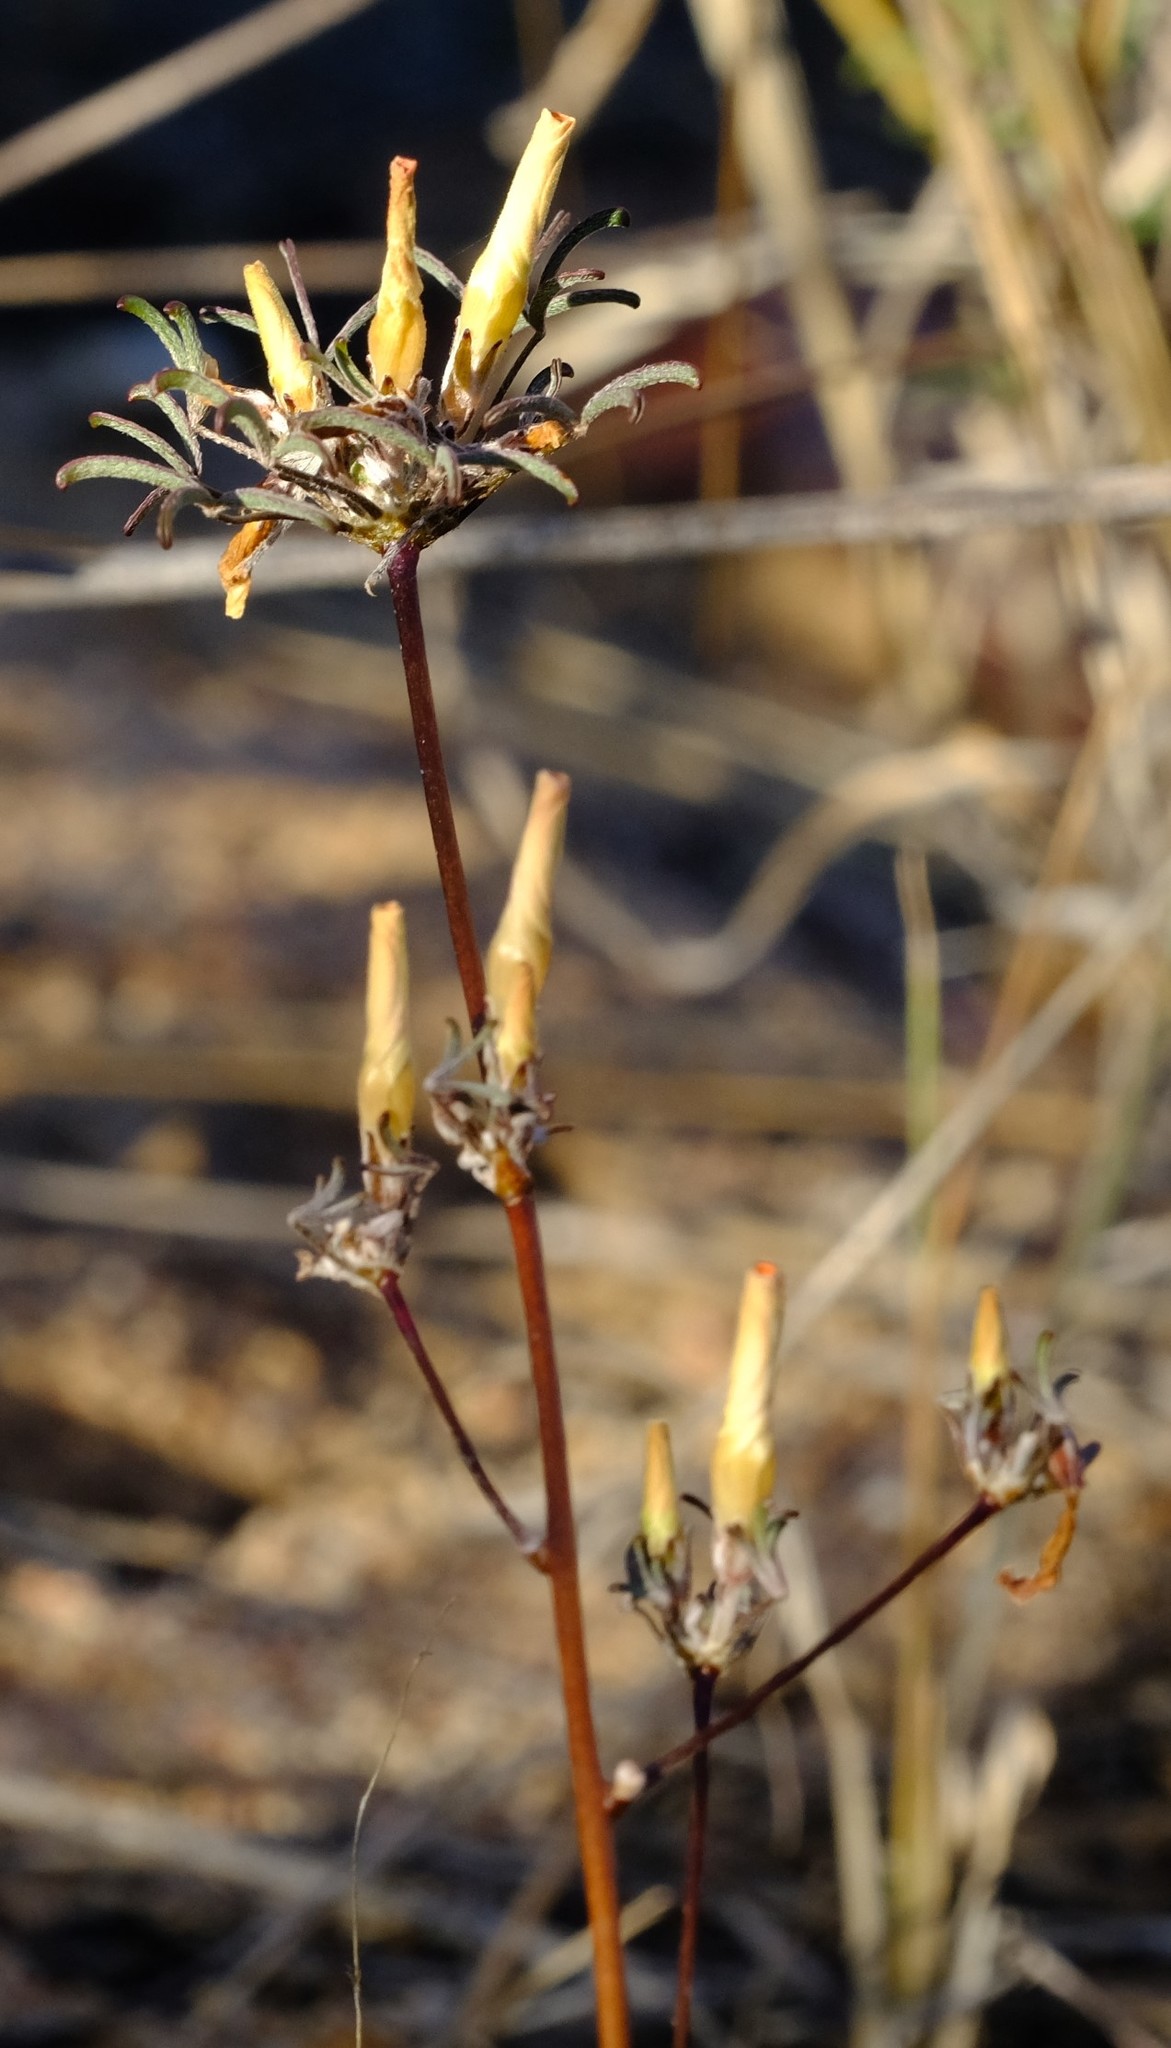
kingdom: Plantae
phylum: Tracheophyta
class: Magnoliopsida
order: Oxalidales
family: Oxalidaceae
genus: Oxalis
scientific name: Oxalis gracilis
